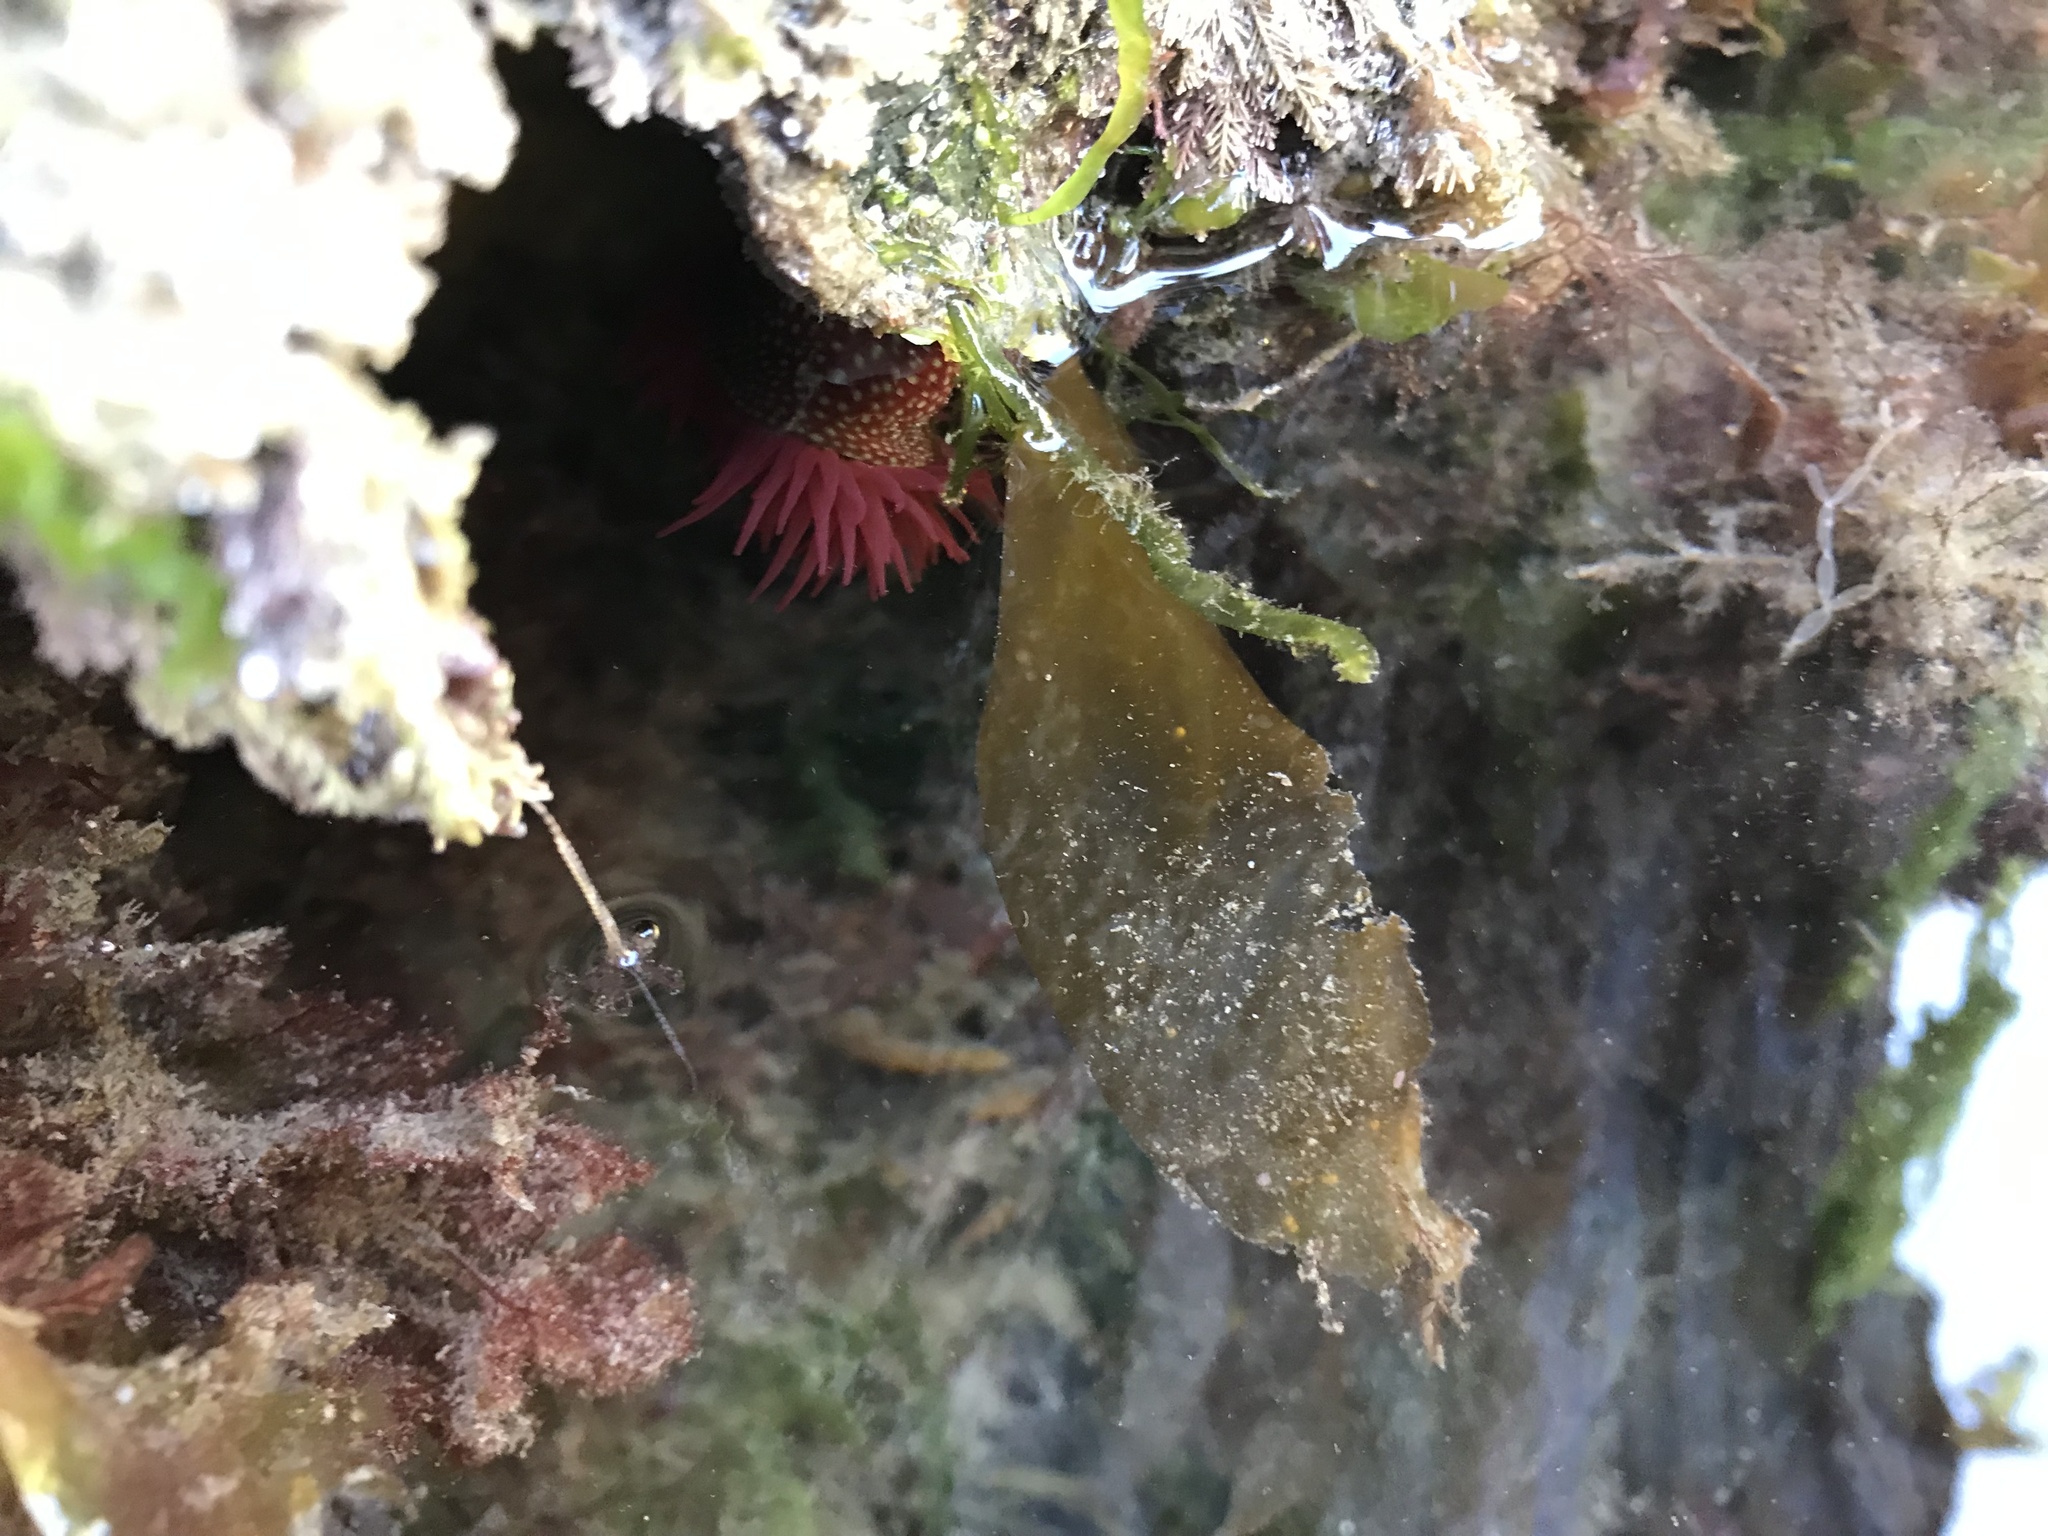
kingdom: Animalia
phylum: Cnidaria
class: Anthozoa
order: Actiniaria
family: Actiniidae
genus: Actinia
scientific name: Actinia fragacea
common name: Strawberry anemone
